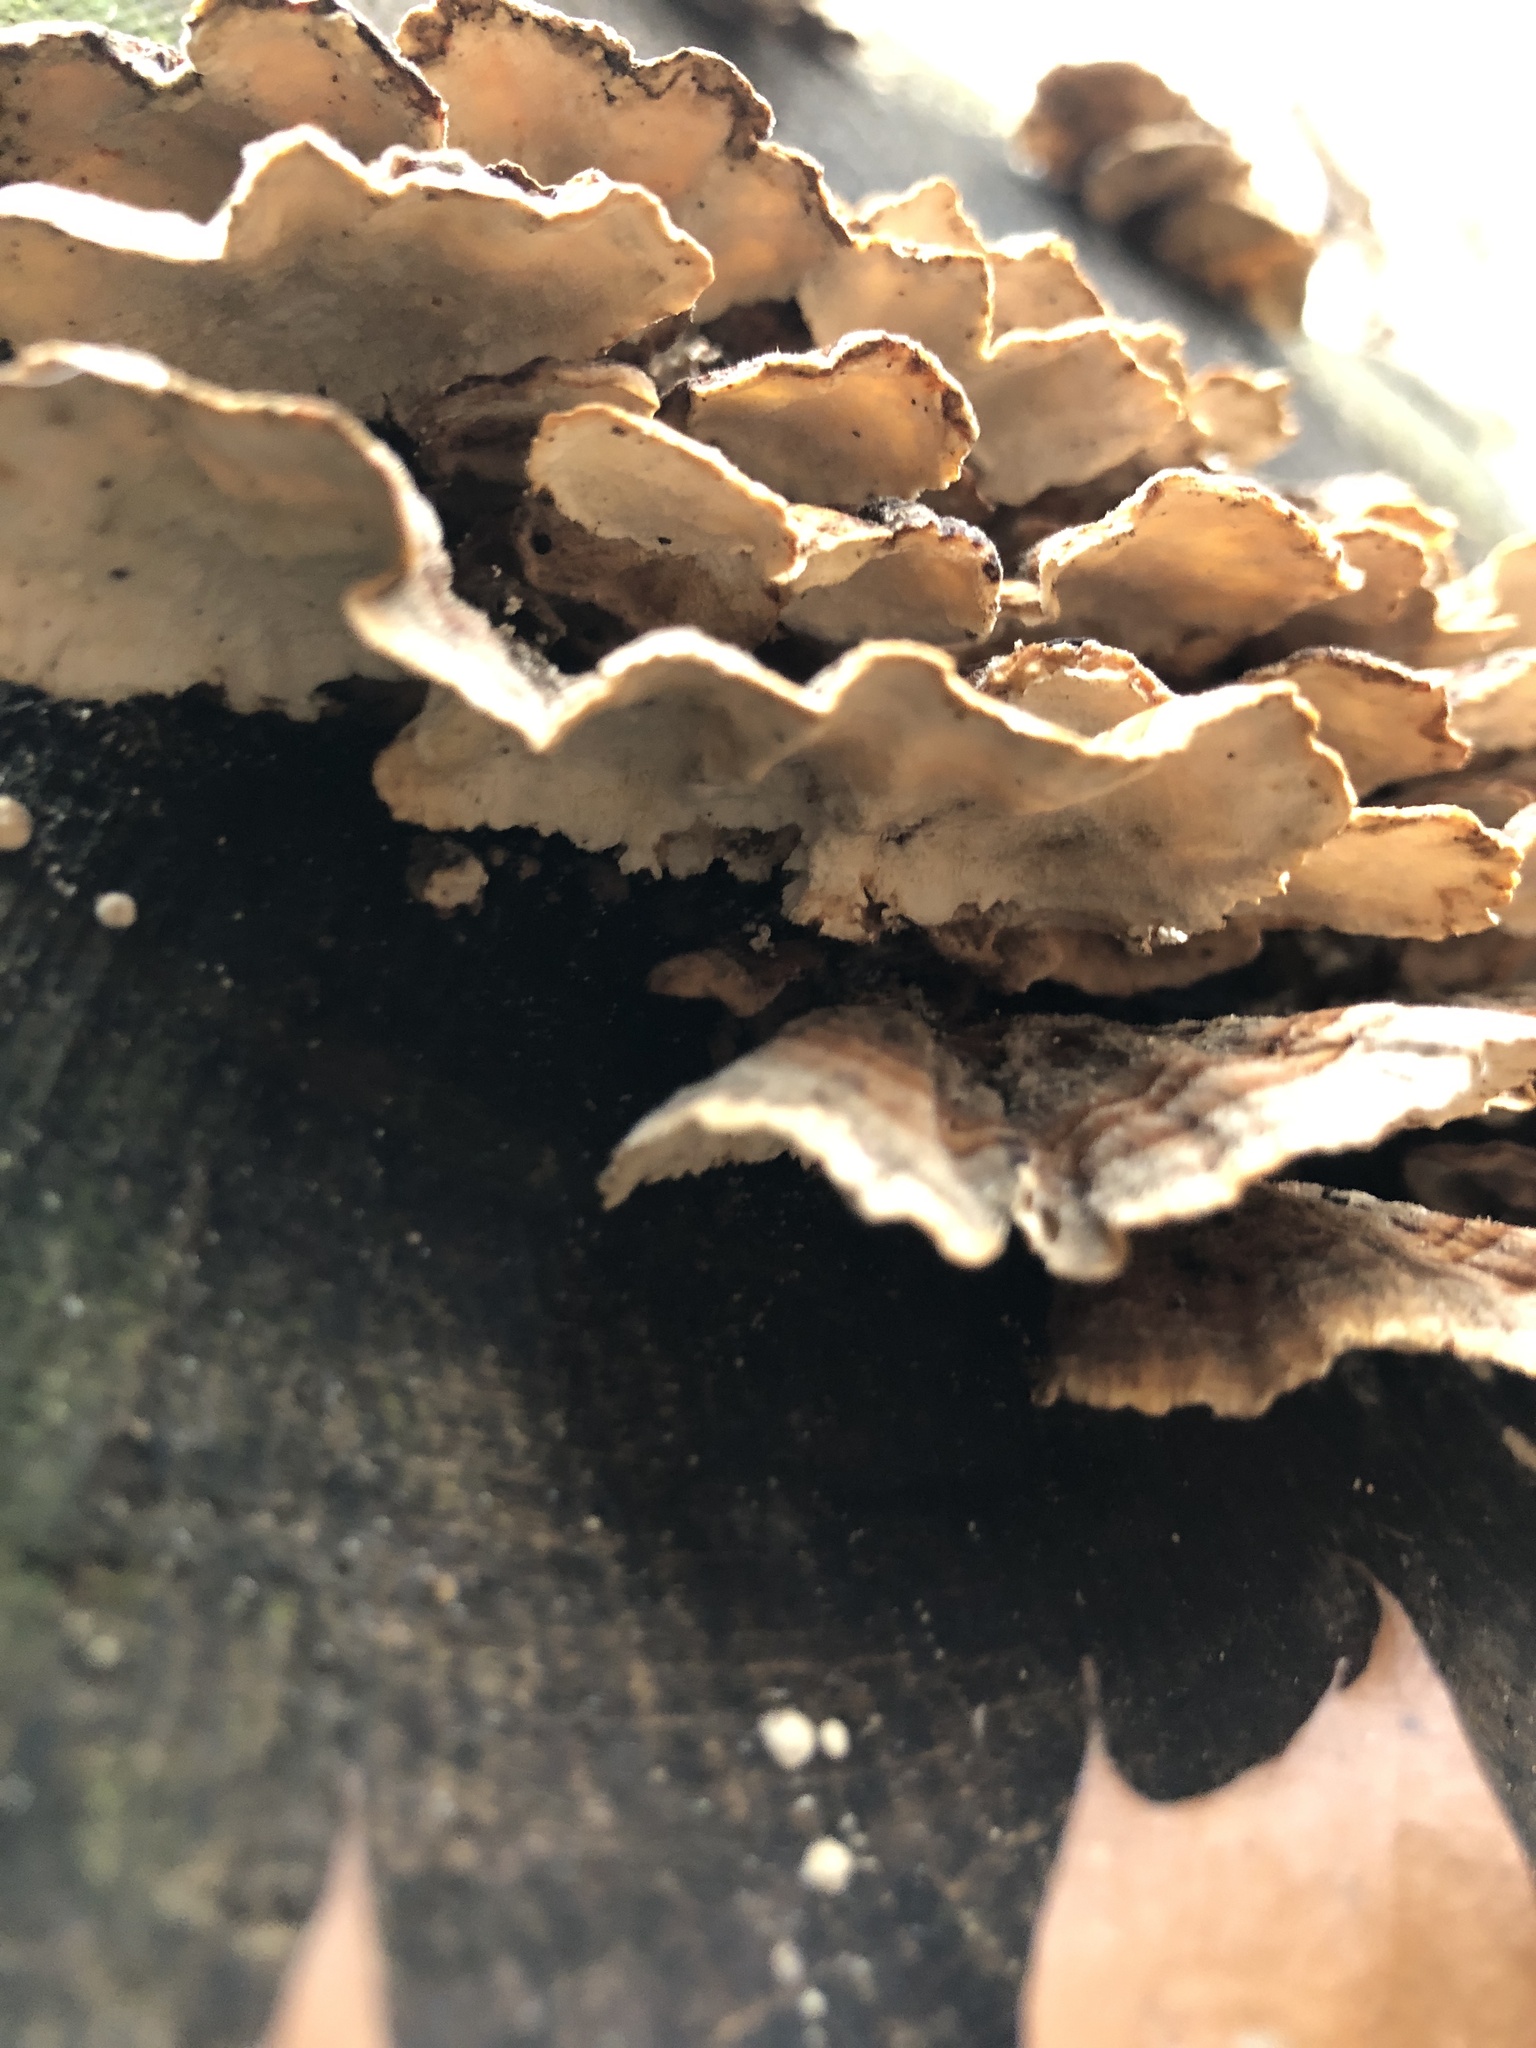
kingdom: Fungi
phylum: Basidiomycota
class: Agaricomycetes
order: Polyporales
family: Polyporaceae
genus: Trametes
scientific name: Trametes versicolor
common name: Turkeytail
